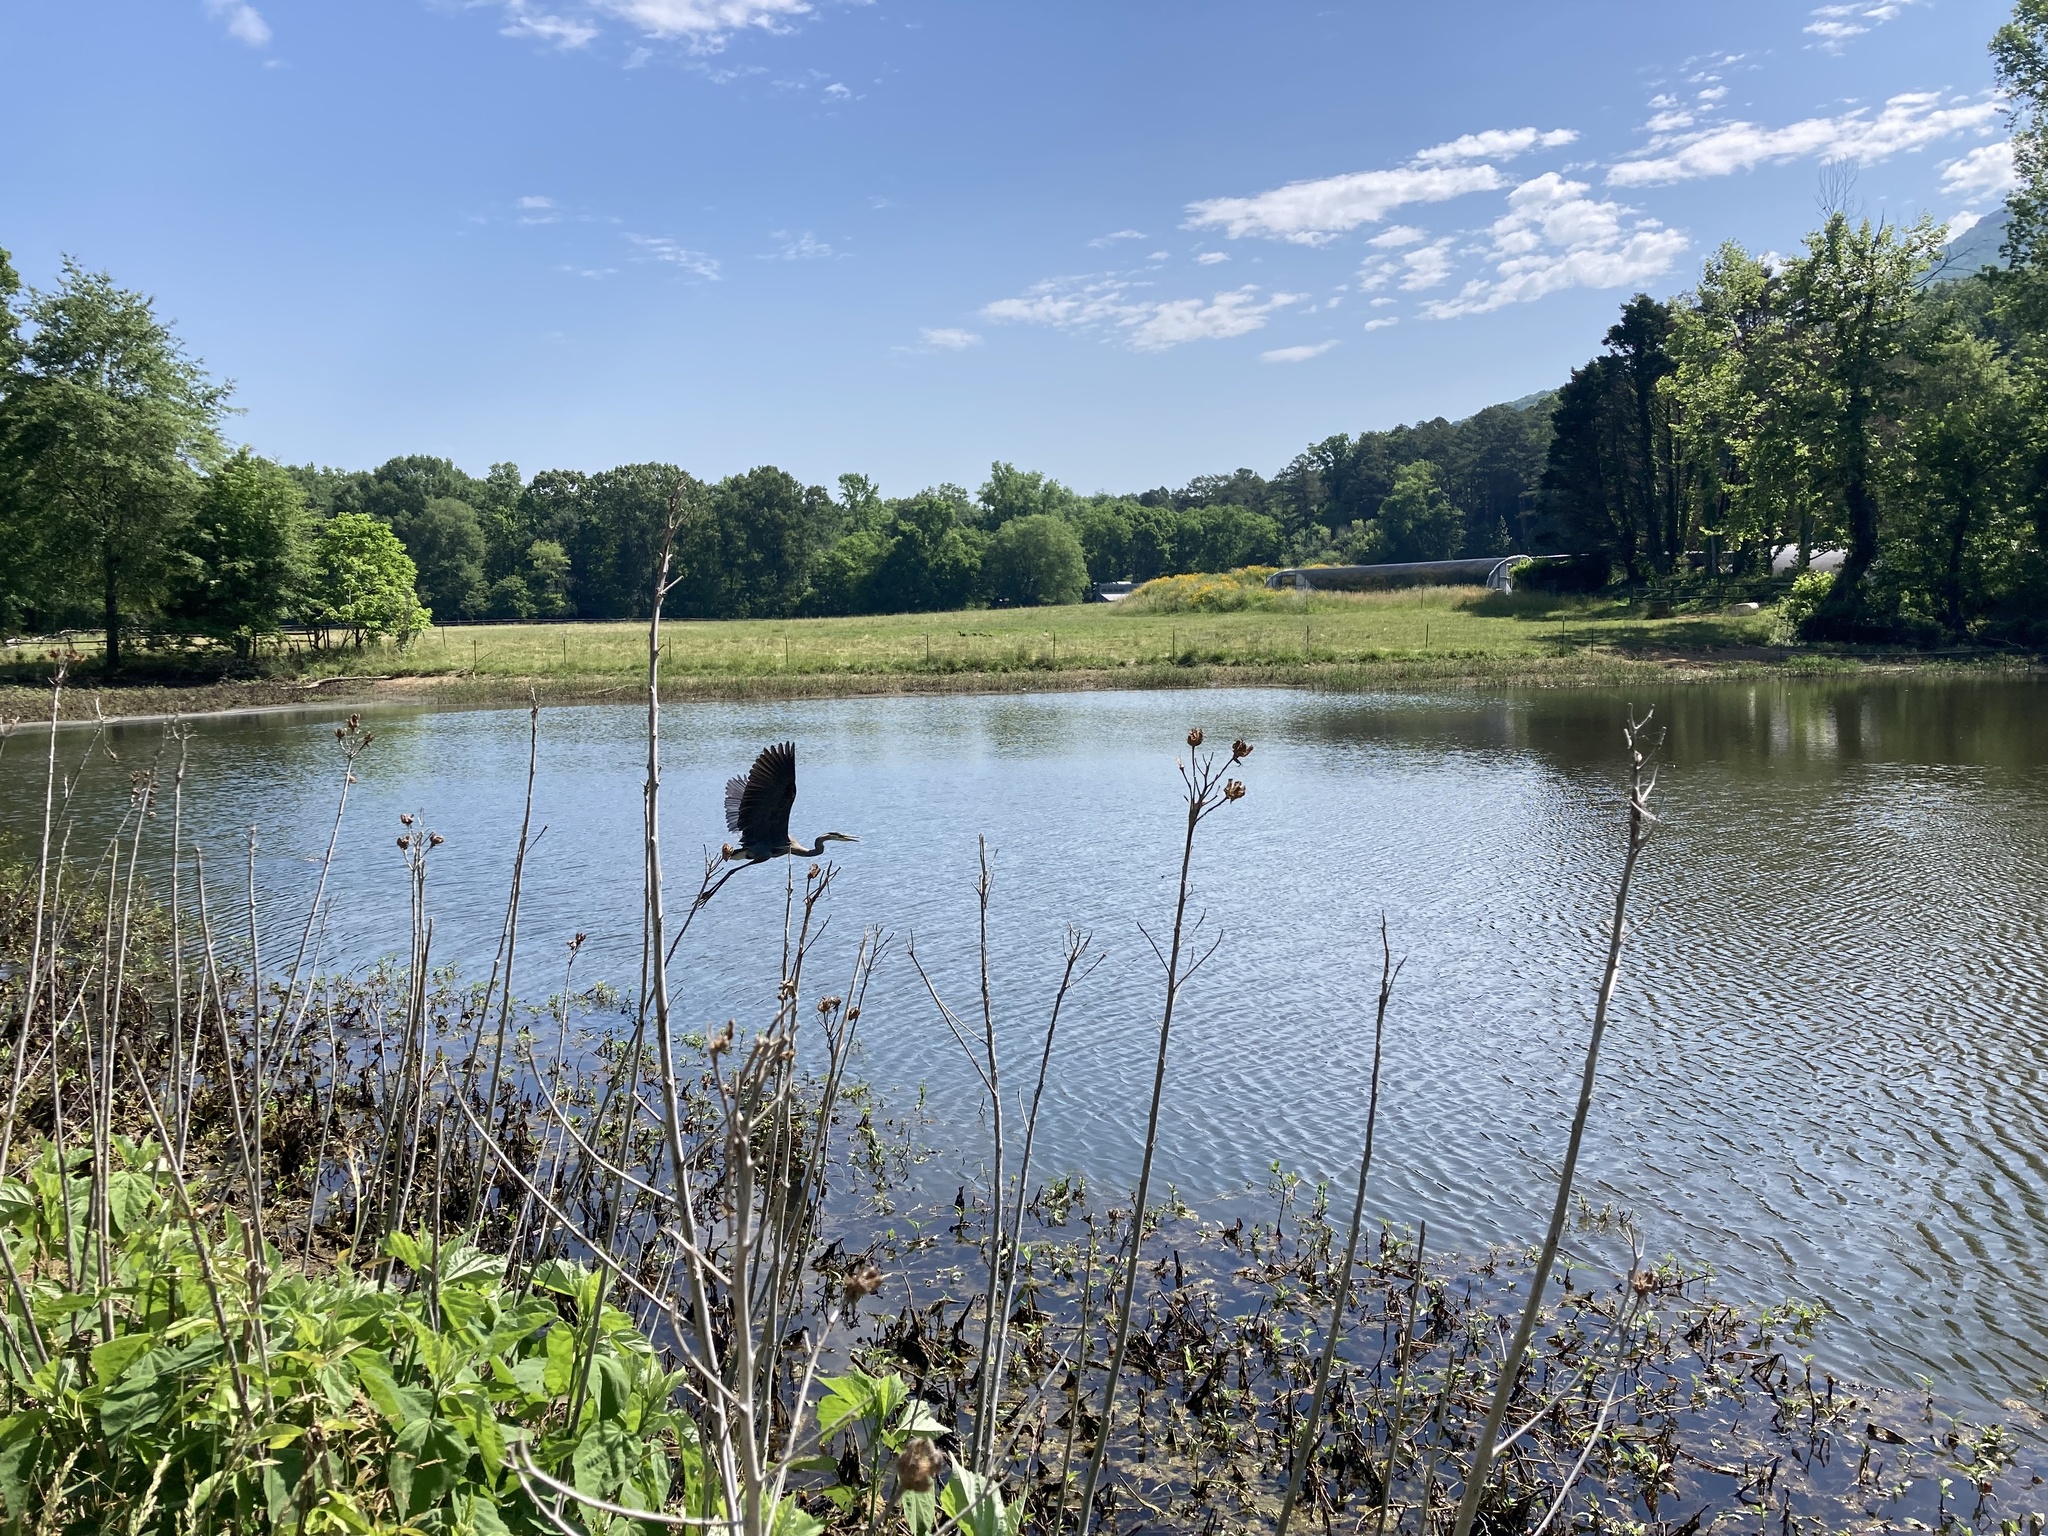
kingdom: Animalia
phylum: Chordata
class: Aves
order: Pelecaniformes
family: Ardeidae
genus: Ardea
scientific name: Ardea herodias
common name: Great blue heron
